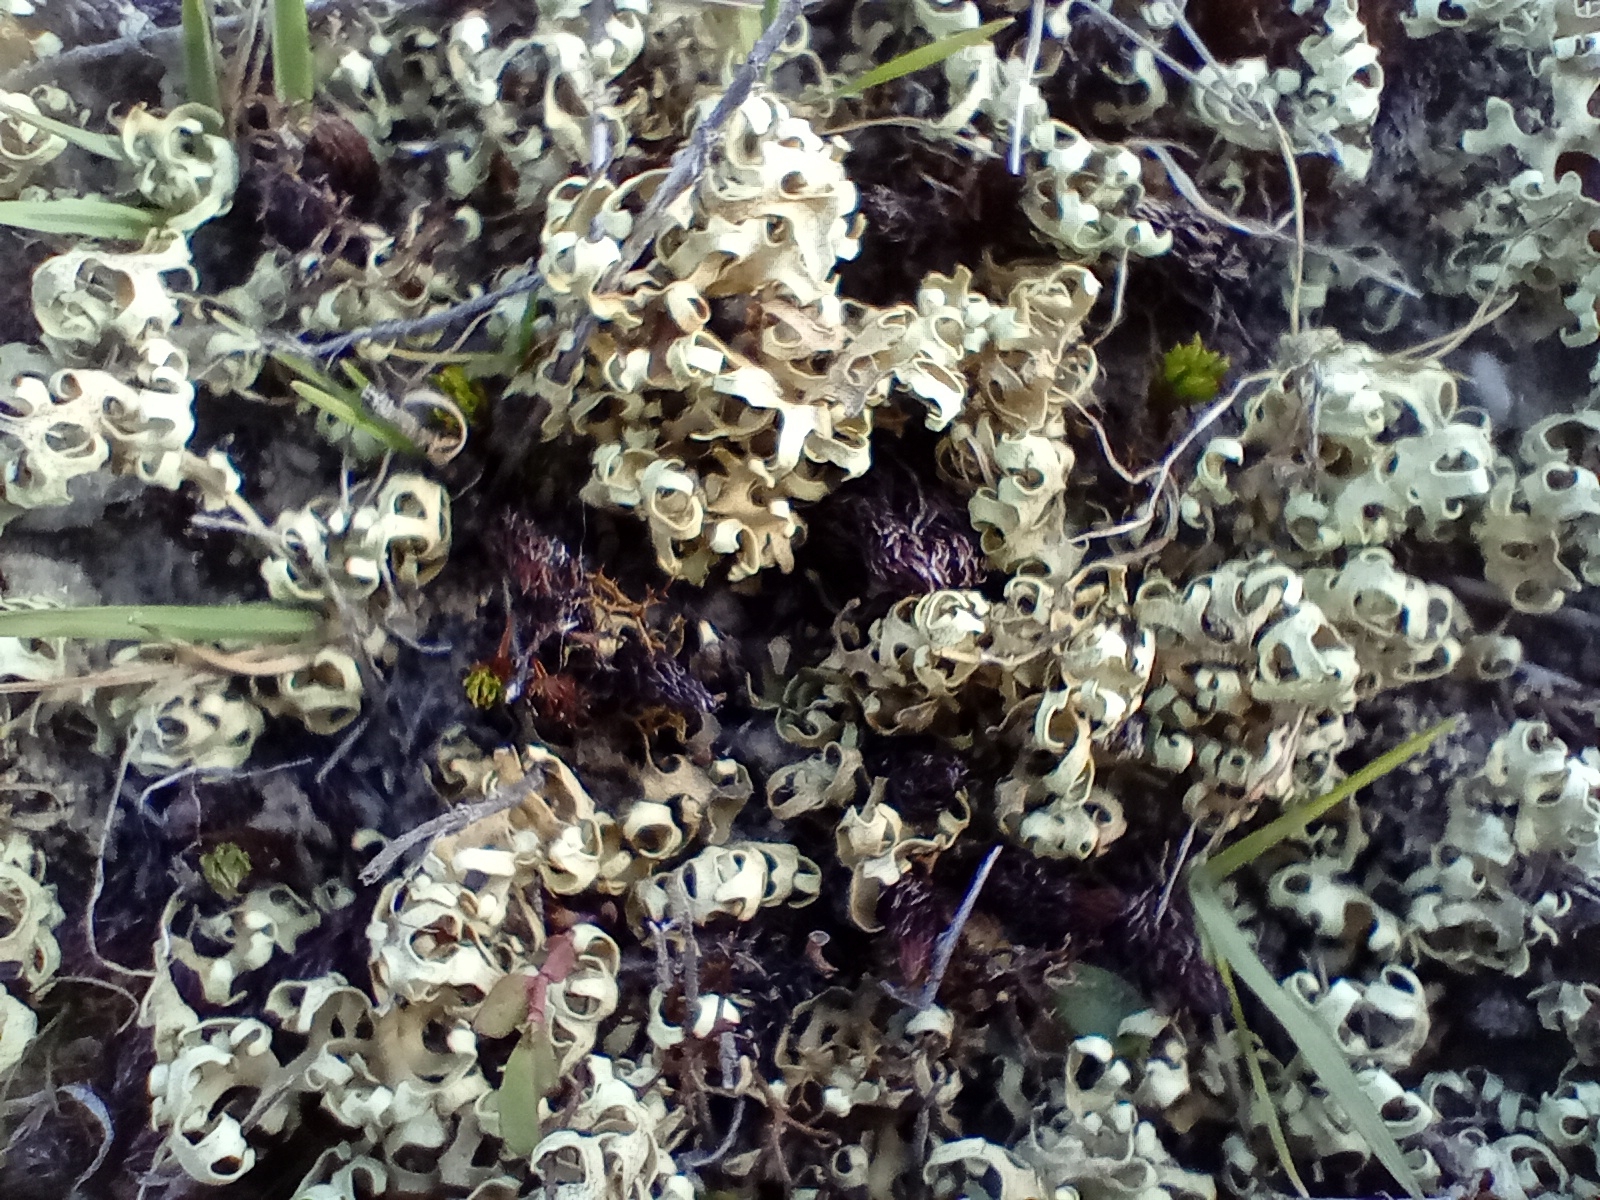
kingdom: Fungi
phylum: Ascomycota
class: Lecanoromycetes
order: Lecanorales
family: Parmeliaceae
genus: Xanthoparmelia
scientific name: Xanthoparmelia semiviridis
